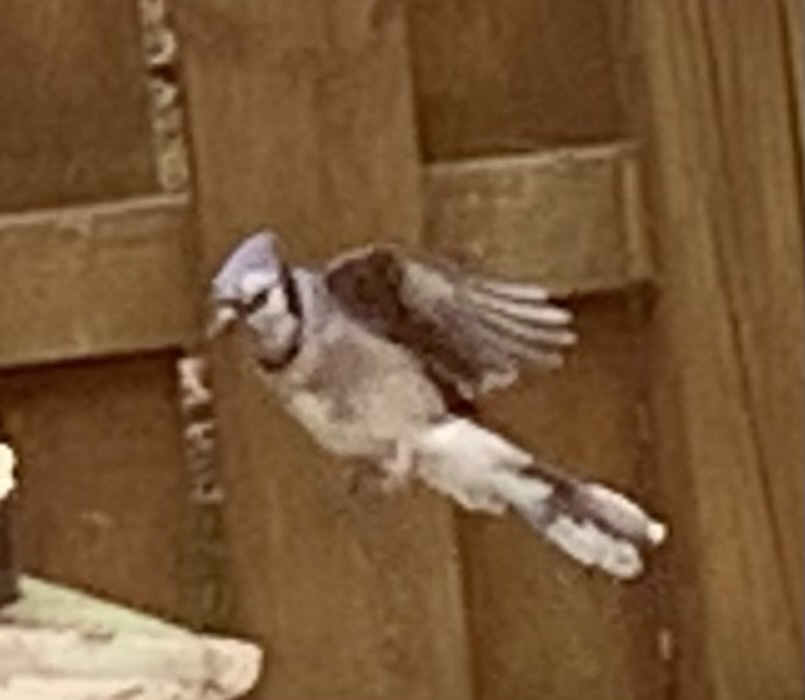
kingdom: Animalia
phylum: Chordata
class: Aves
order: Passeriformes
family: Corvidae
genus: Cyanocitta
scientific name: Cyanocitta cristata
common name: Blue jay
